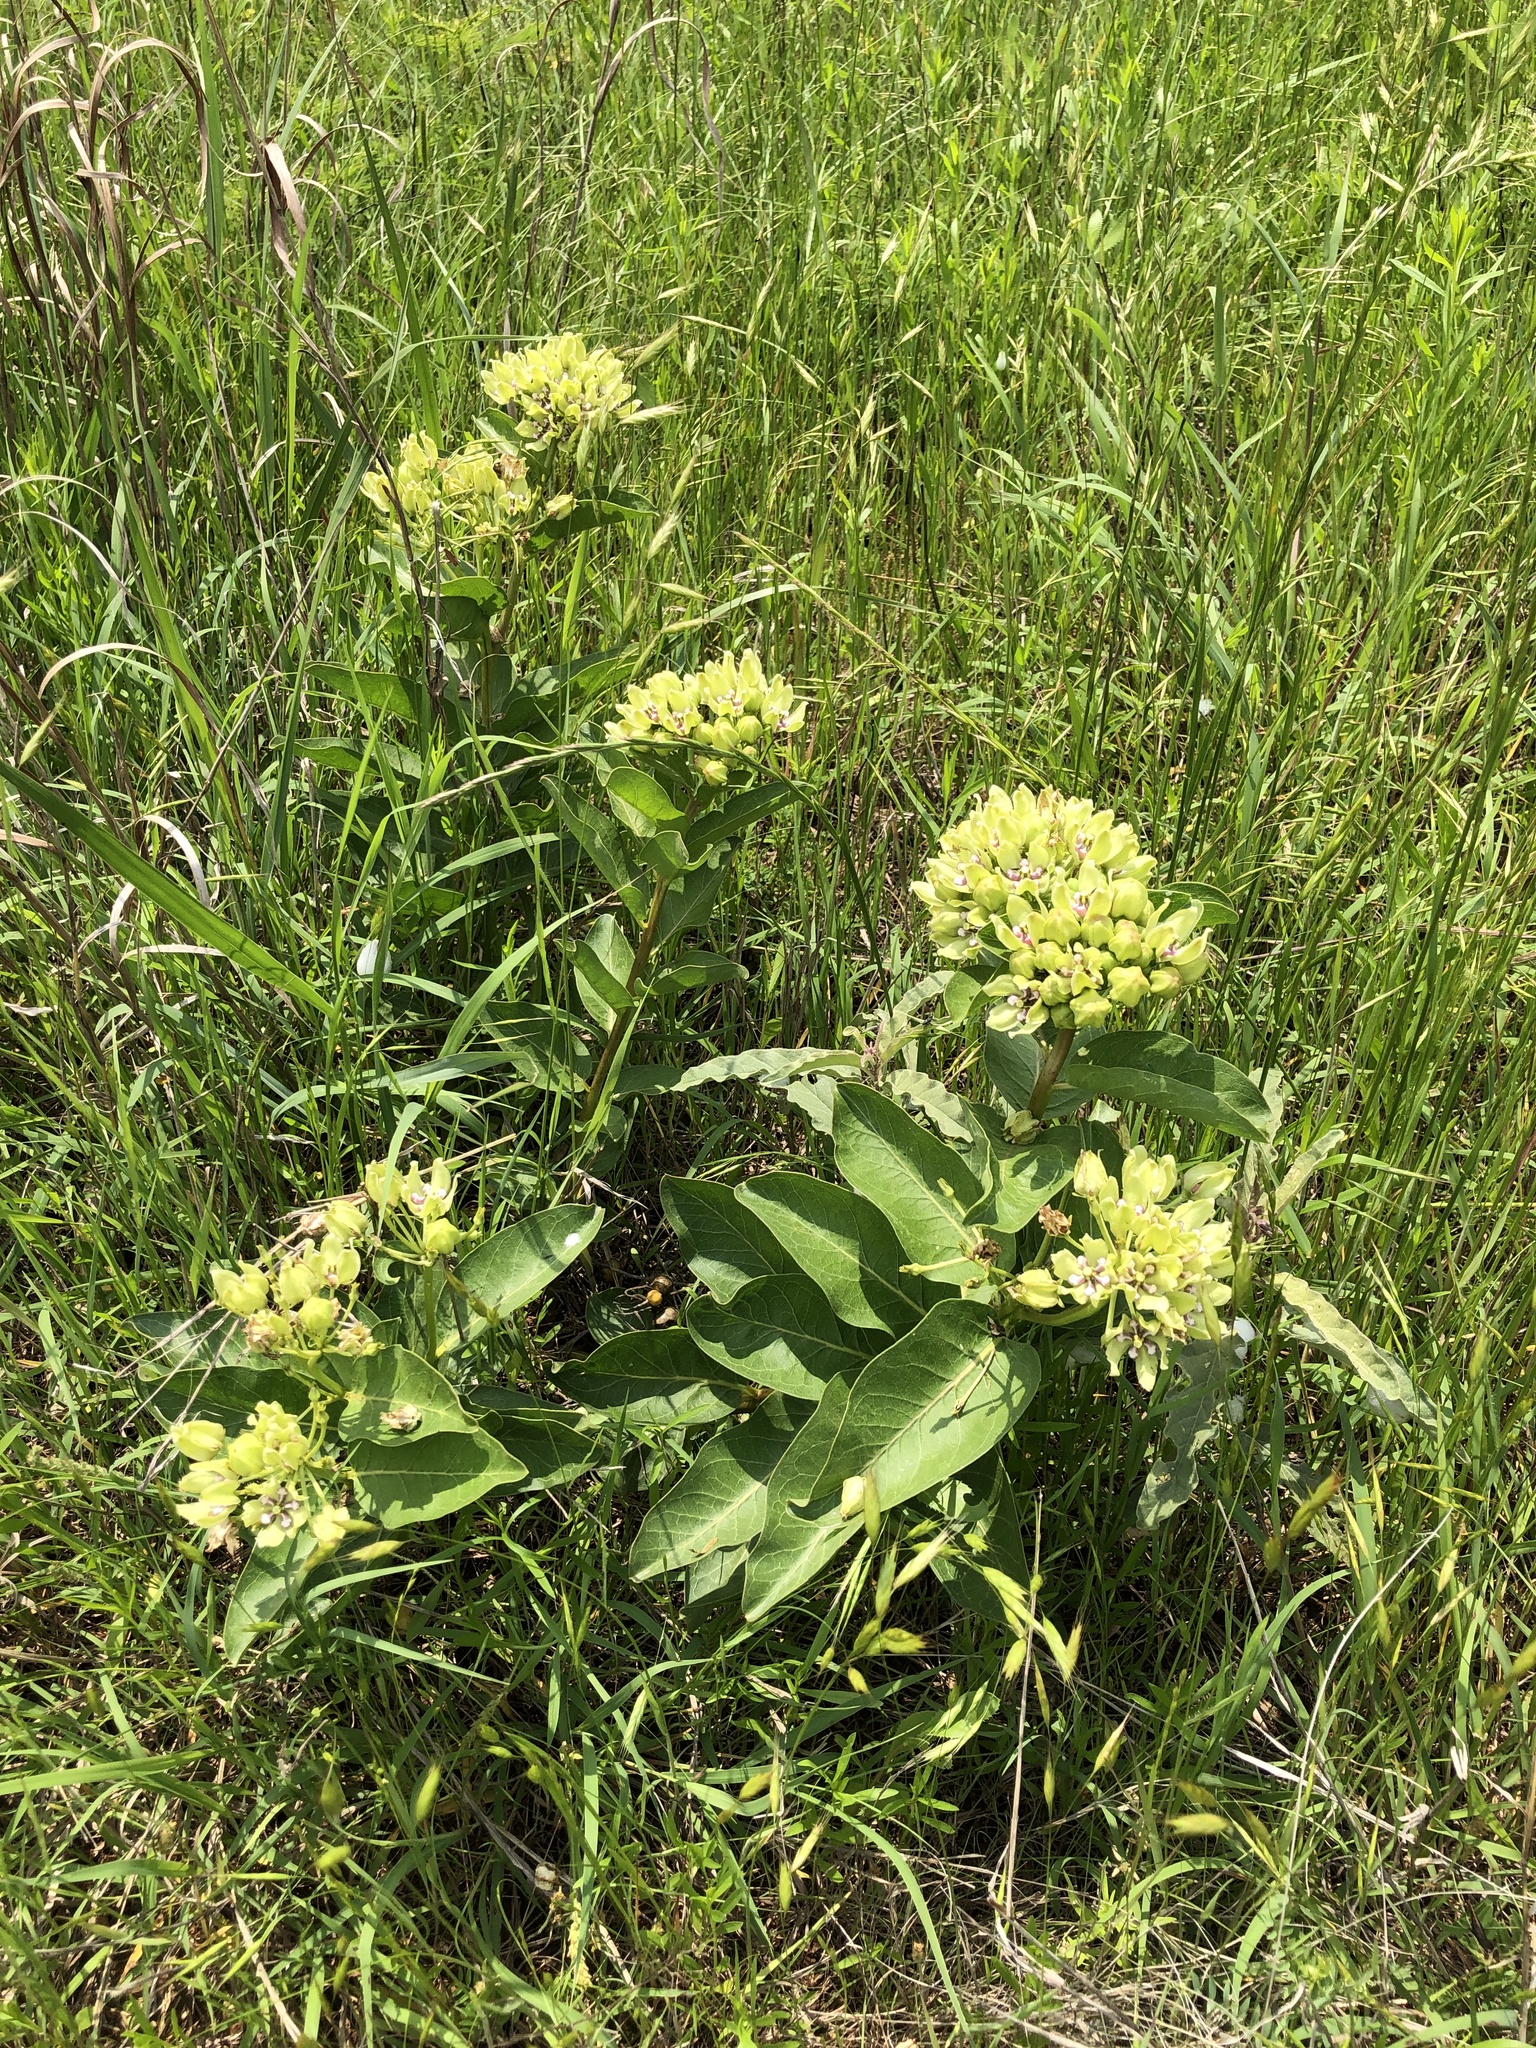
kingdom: Plantae
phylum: Tracheophyta
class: Magnoliopsida
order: Gentianales
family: Apocynaceae
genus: Asclepias
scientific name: Asclepias viridis
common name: Antelope-horns
